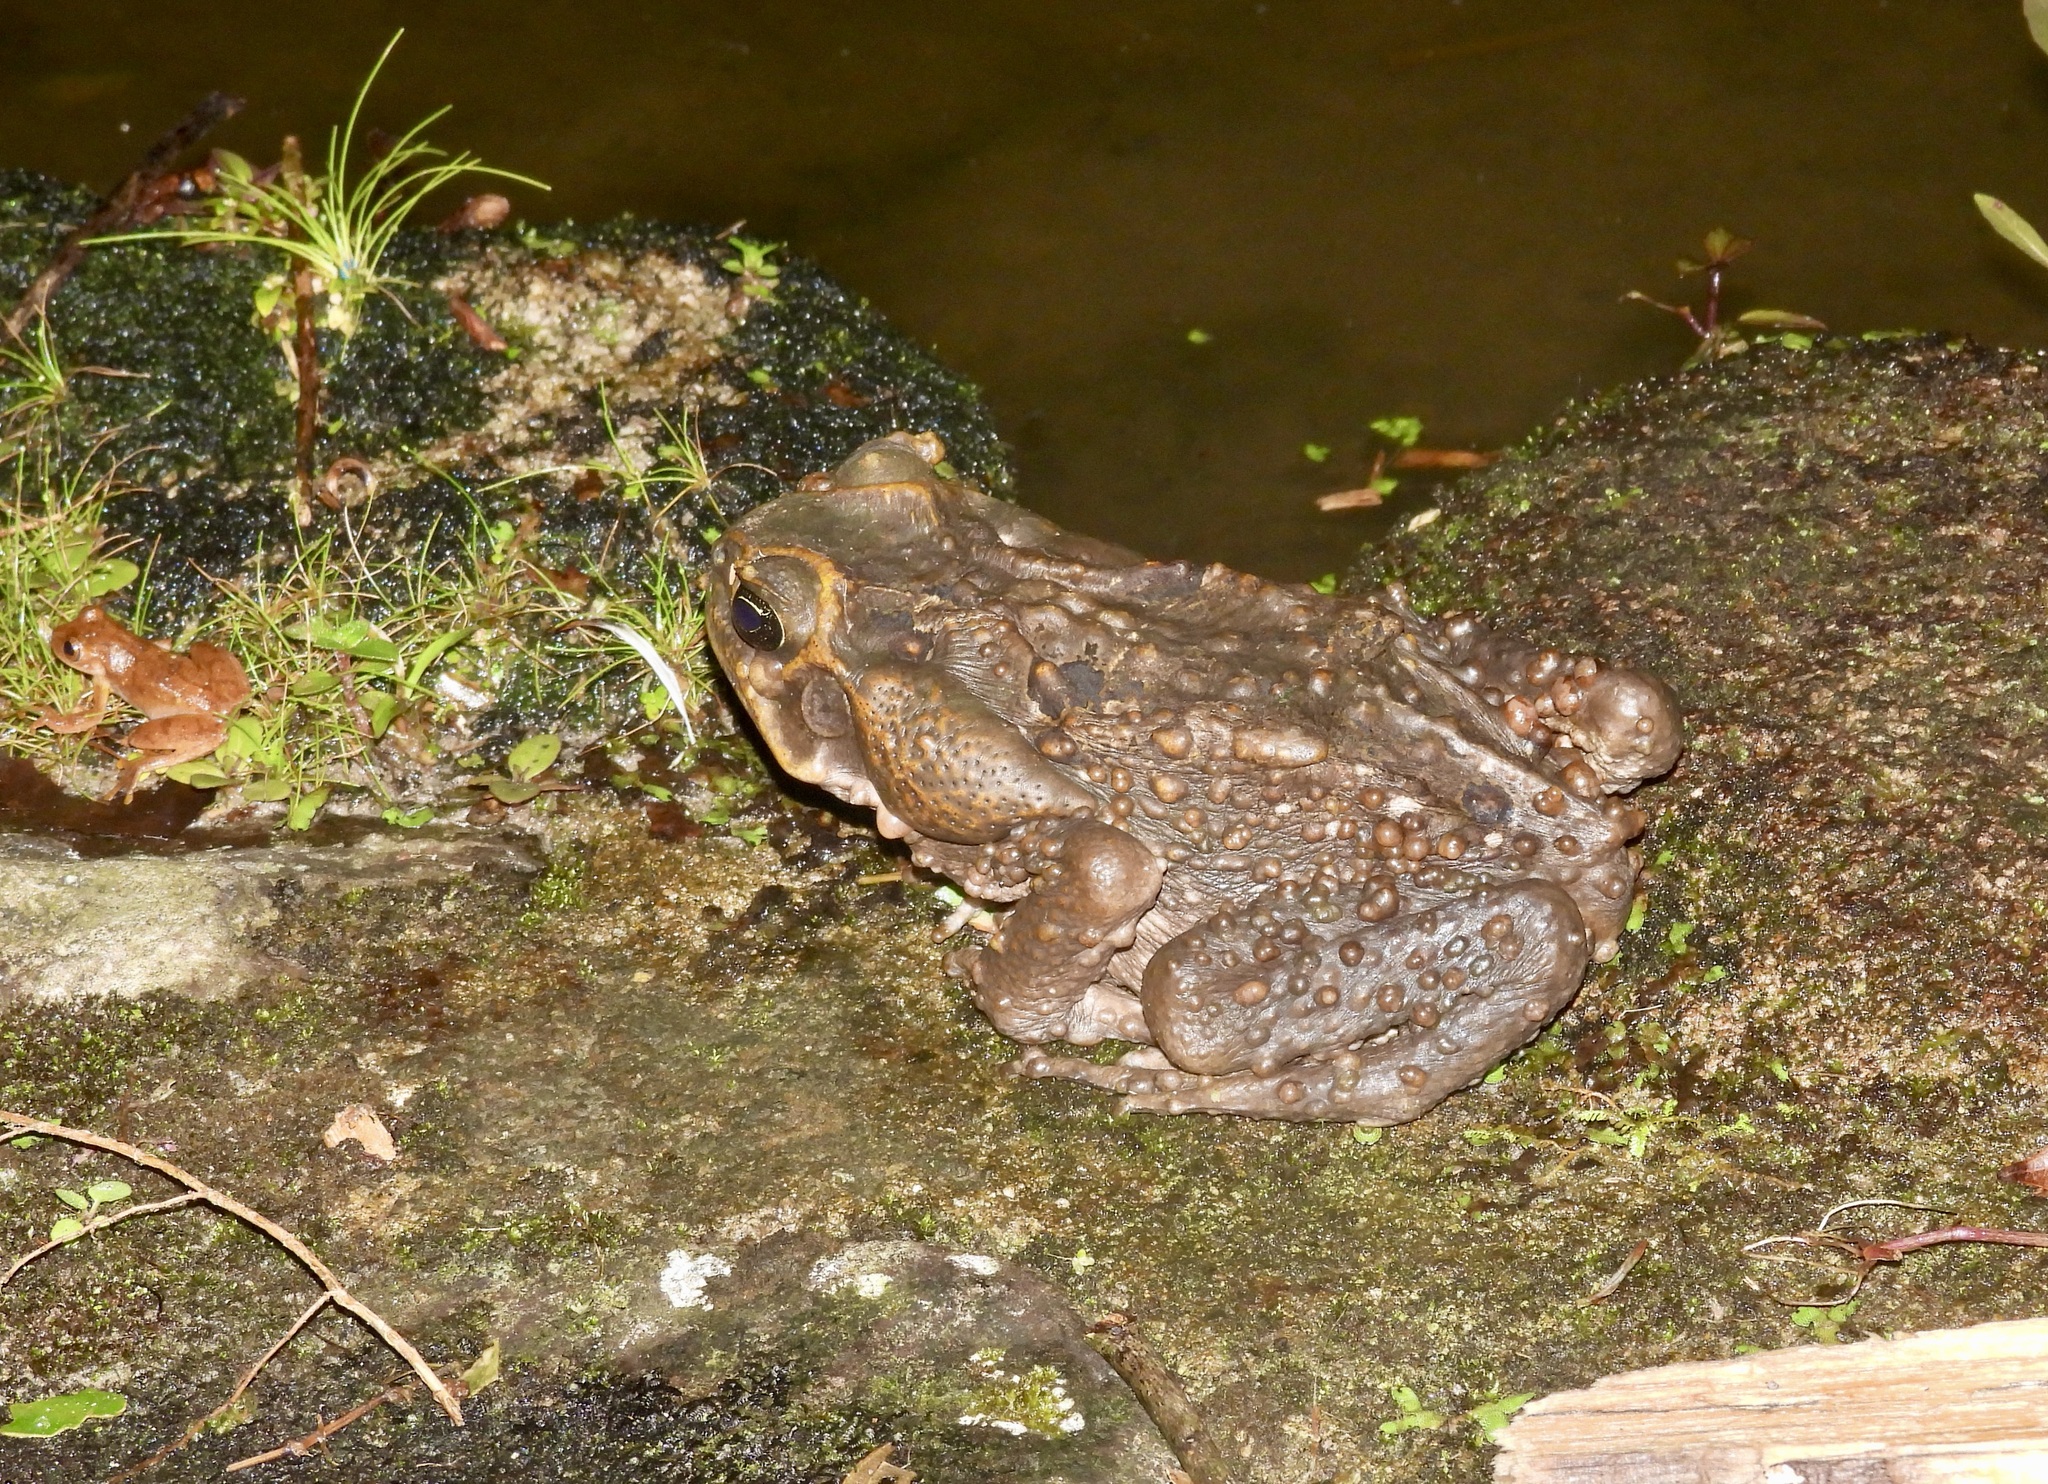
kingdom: Animalia
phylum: Chordata
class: Amphibia
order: Anura
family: Bufonidae
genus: Rhinella
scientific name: Rhinella horribilis
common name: Mesoamerican cane toad
